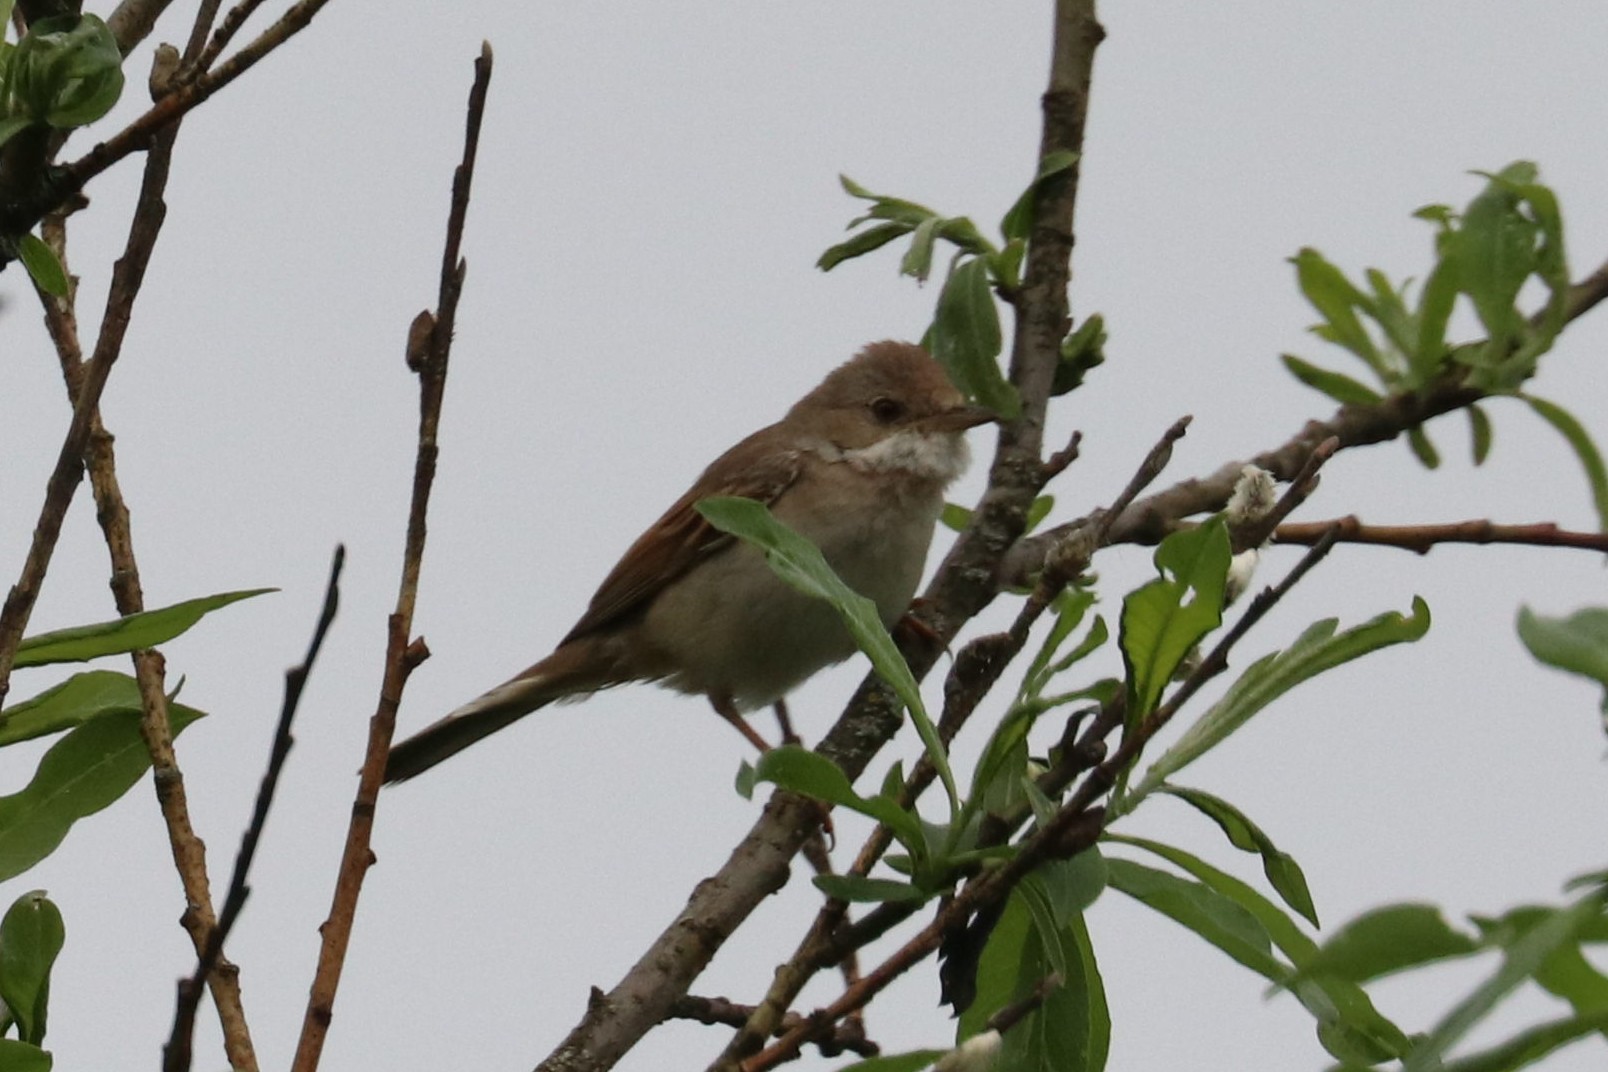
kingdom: Animalia
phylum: Chordata
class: Aves
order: Passeriformes
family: Sylviidae
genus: Sylvia
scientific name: Sylvia communis
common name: Common whitethroat
